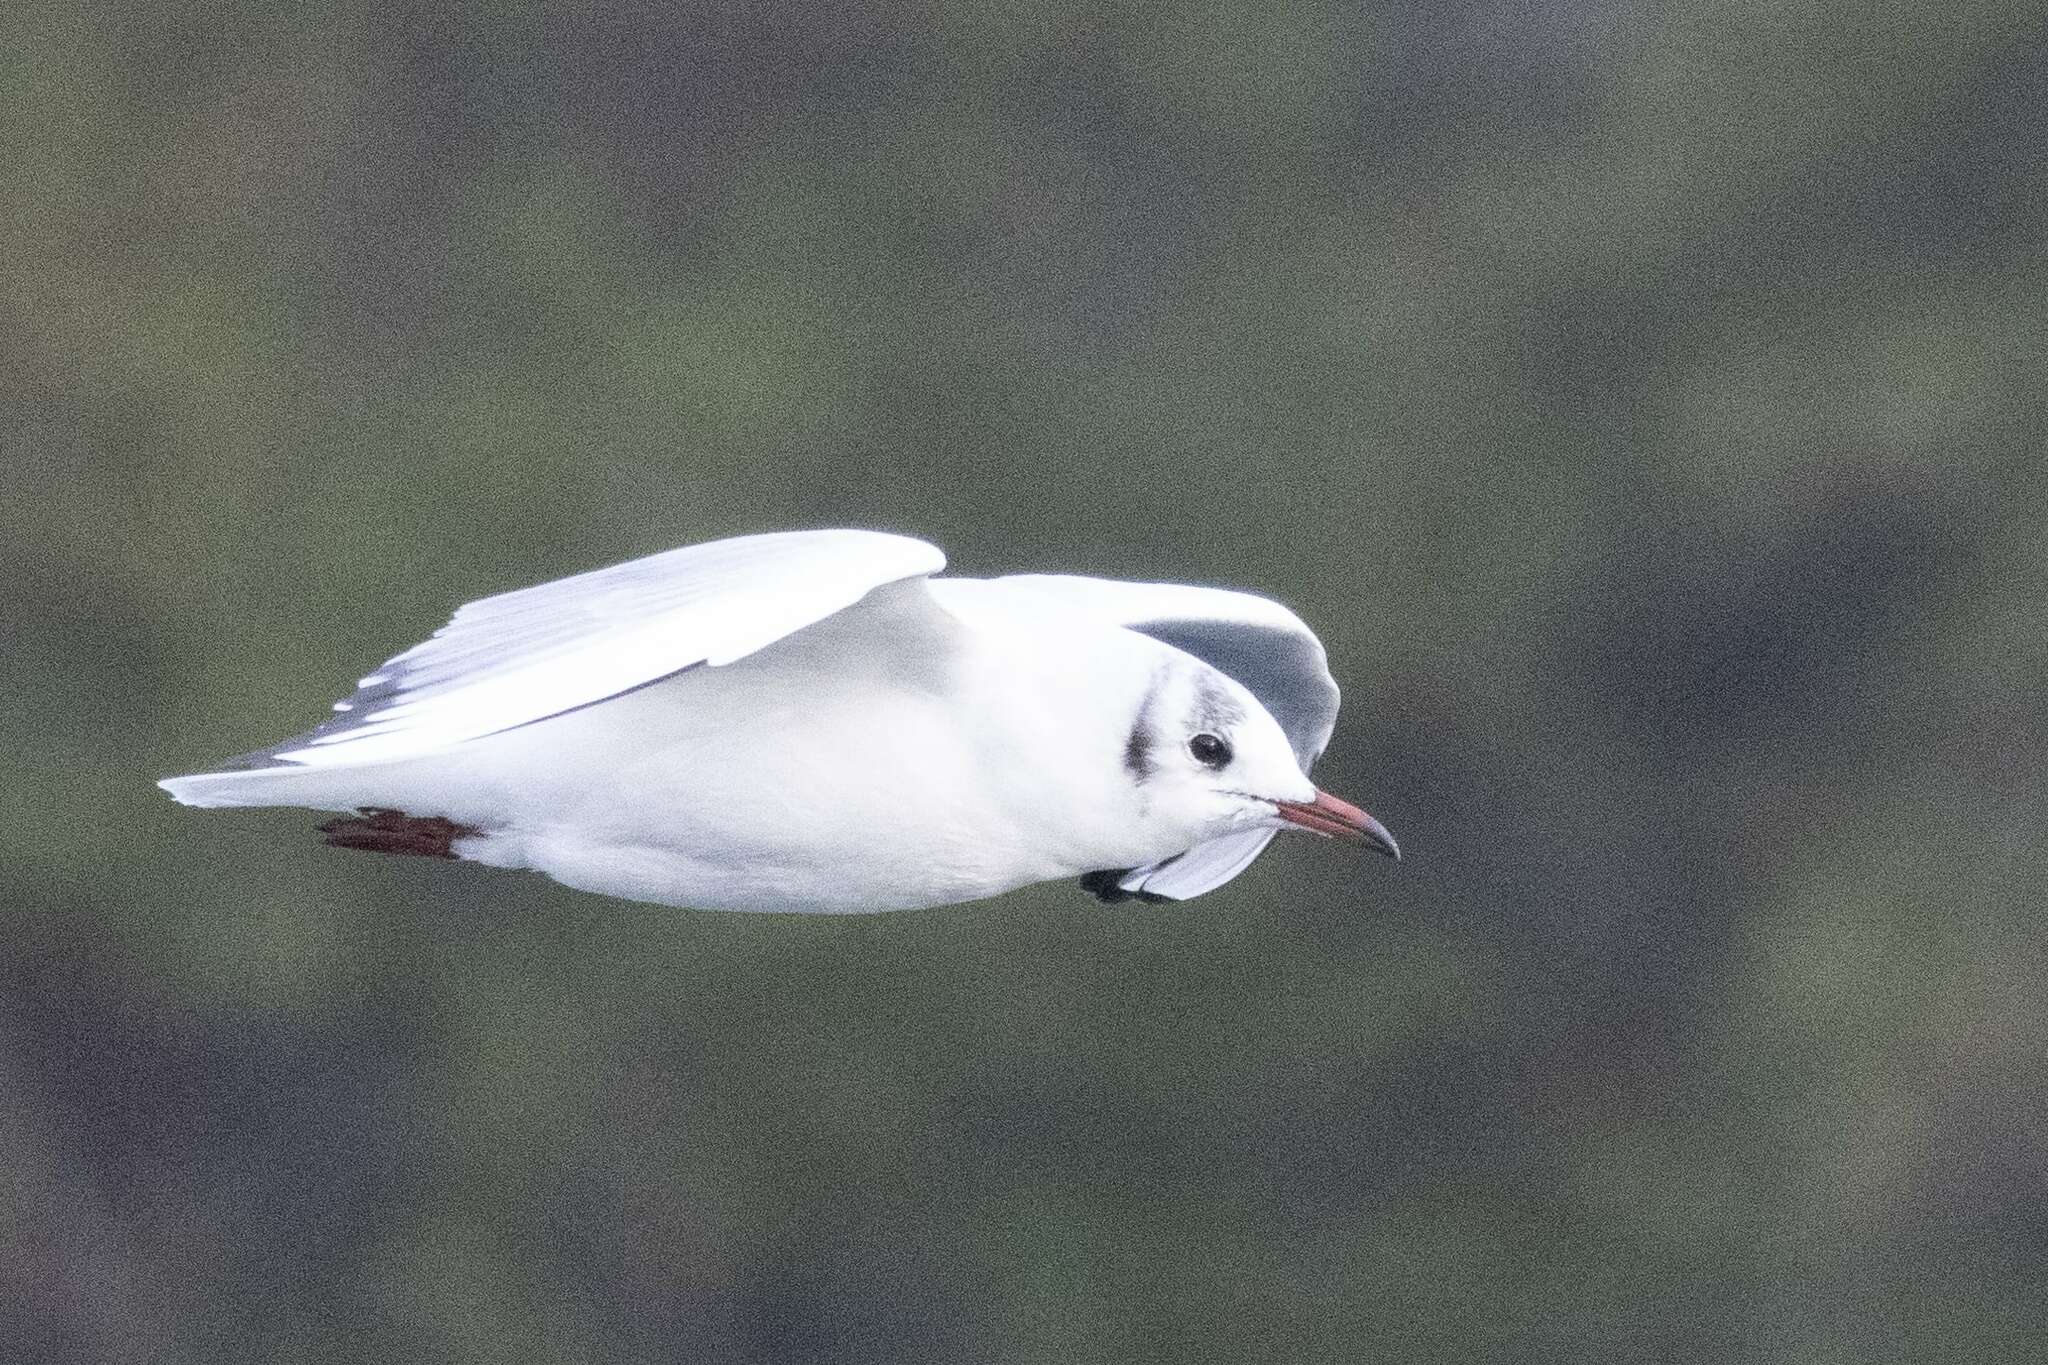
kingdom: Animalia
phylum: Chordata
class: Aves
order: Charadriiformes
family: Laridae
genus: Chroicocephalus
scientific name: Chroicocephalus ridibundus
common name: Black-headed gull
